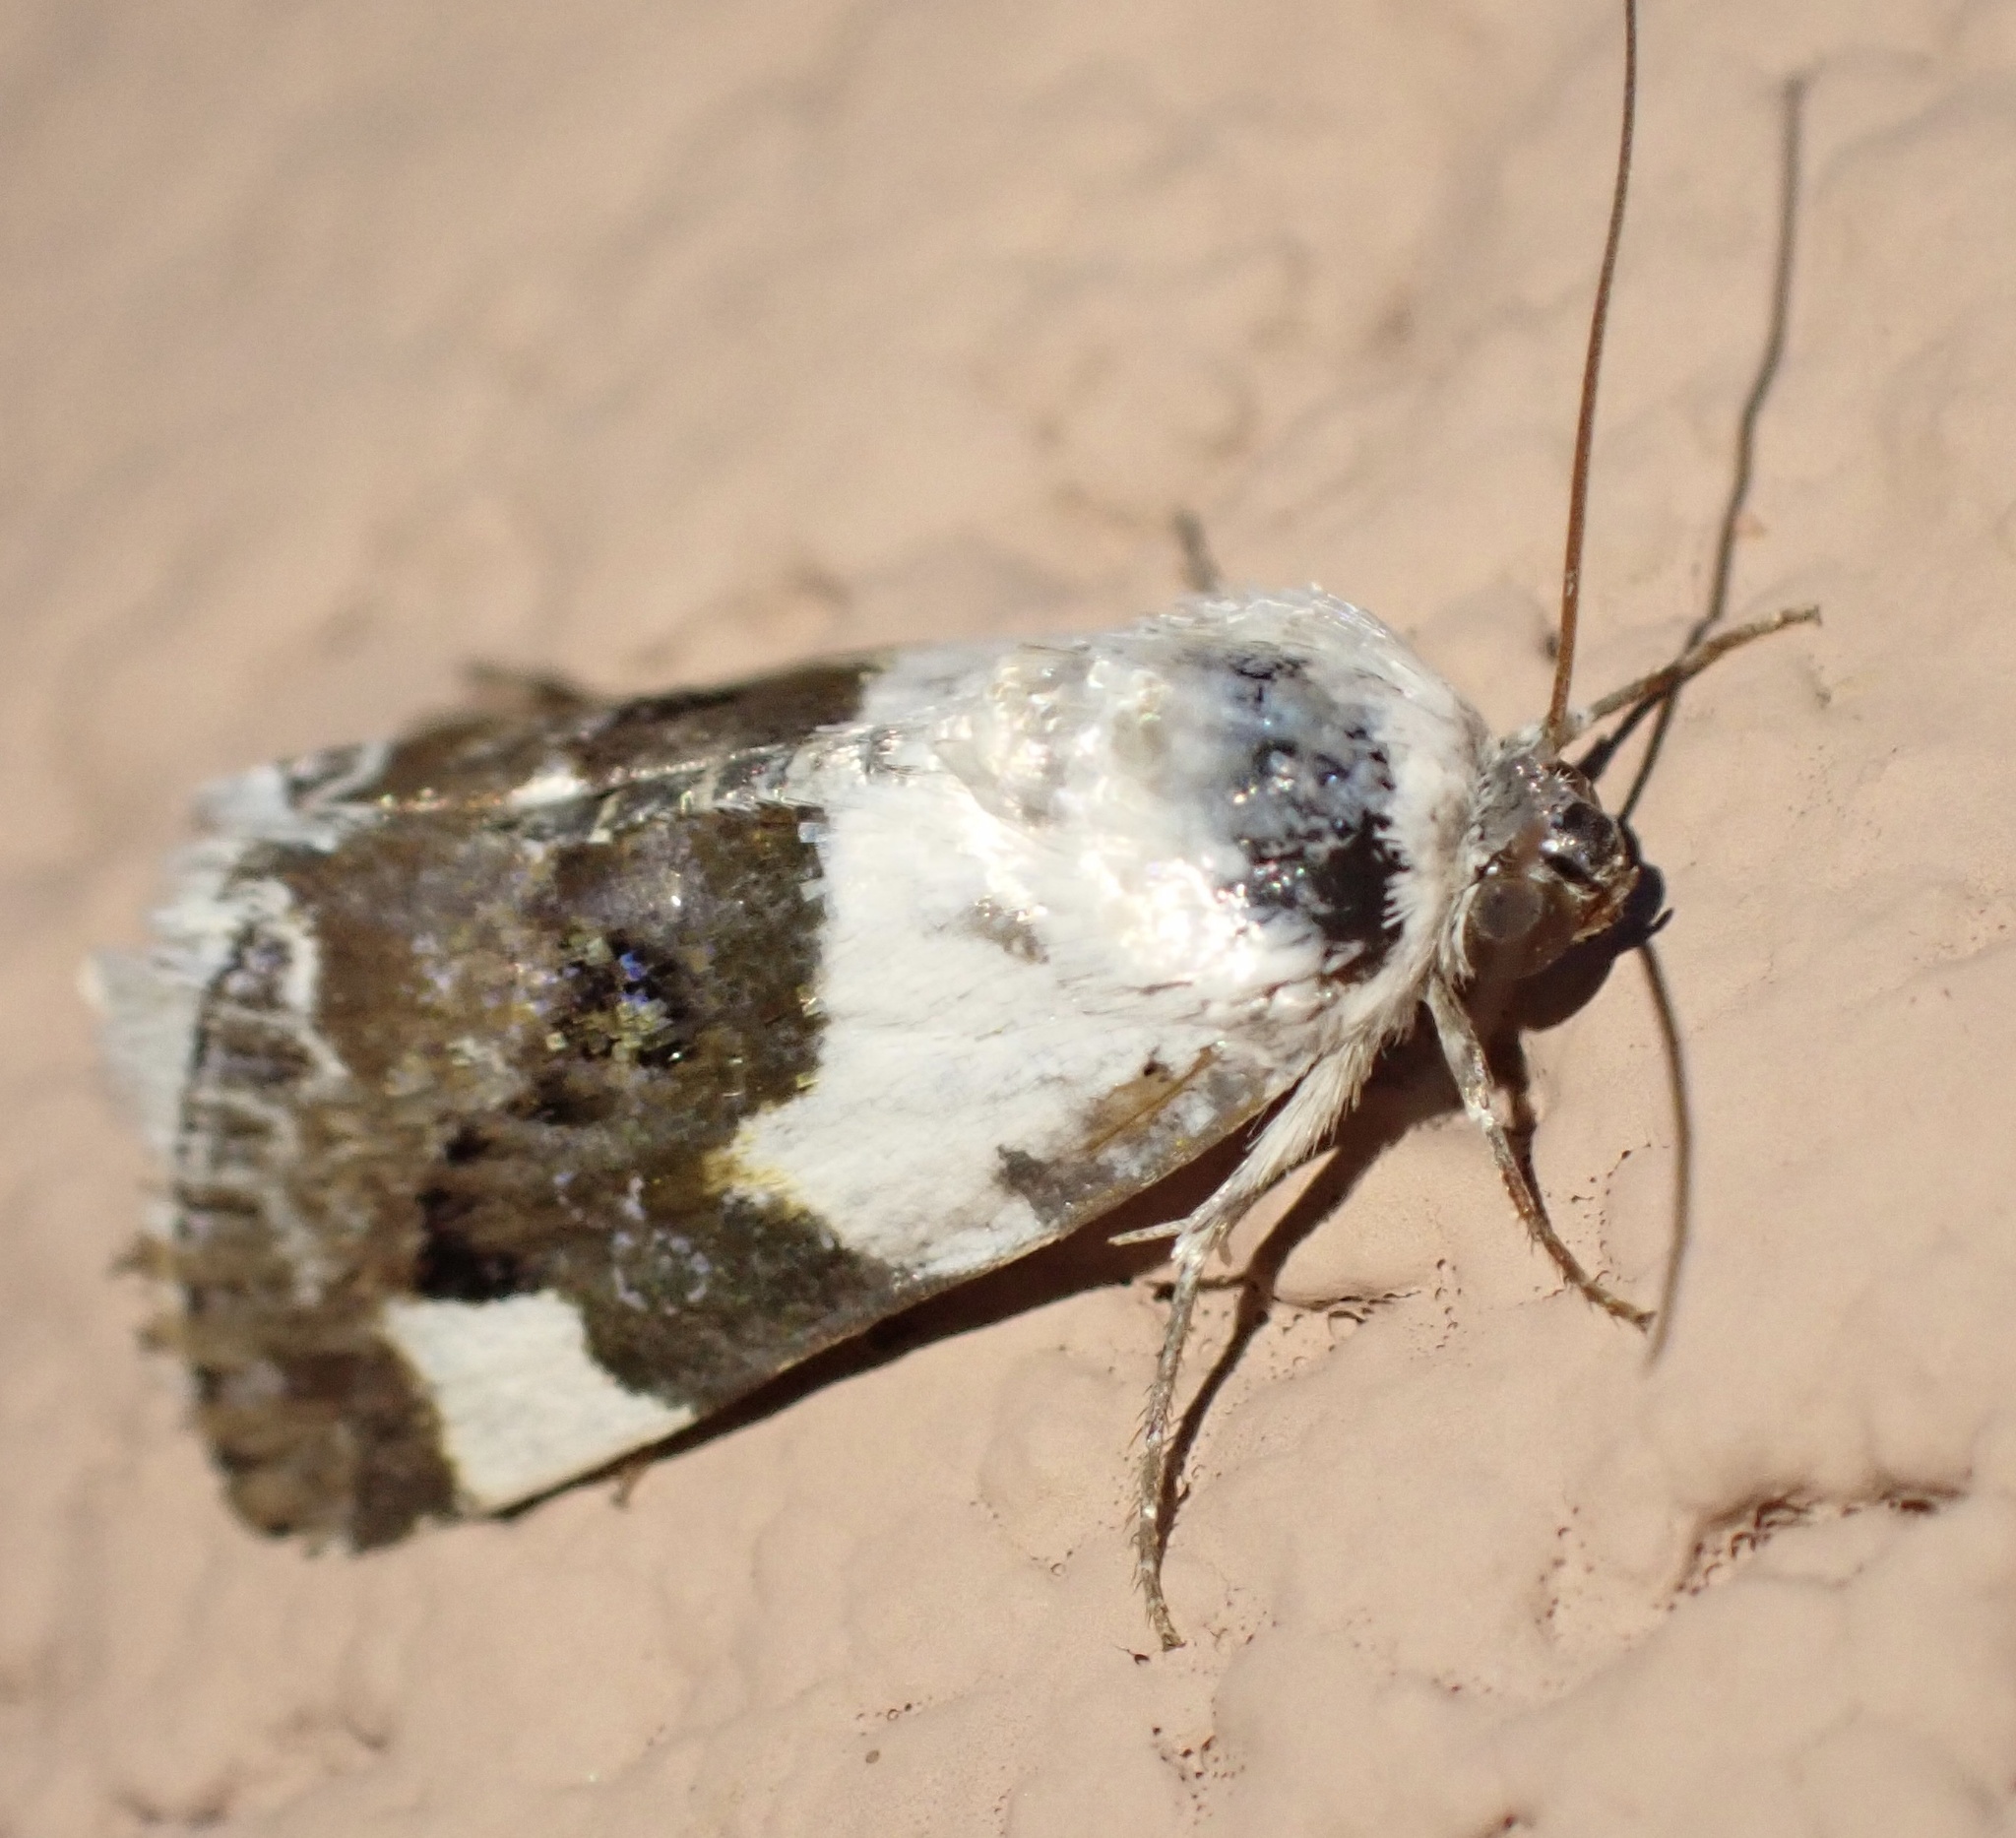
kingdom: Animalia
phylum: Arthropoda
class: Insecta
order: Lepidoptera
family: Noctuidae
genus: Acontia
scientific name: Acontia lucida
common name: Pale shoulder
